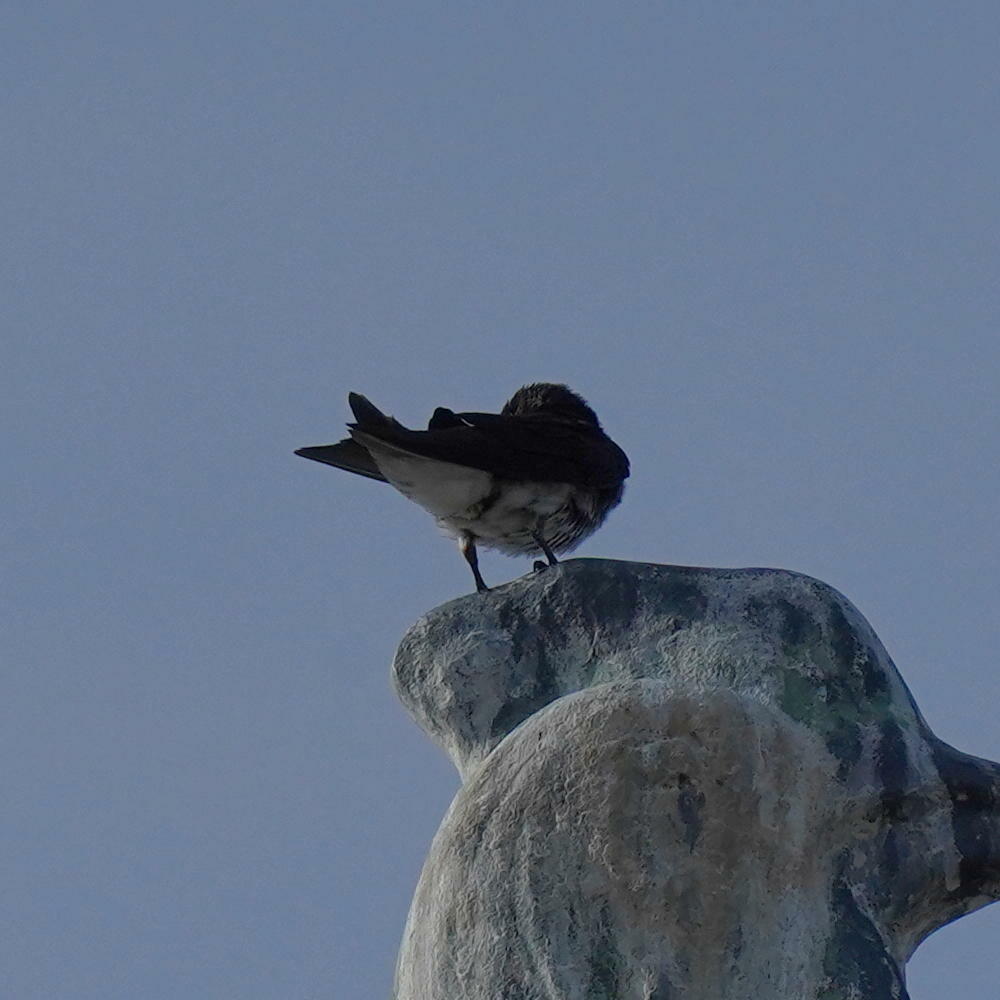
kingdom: Animalia
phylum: Chordata
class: Aves
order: Passeriformes
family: Hirundinidae
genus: Progne
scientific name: Progne chalybea
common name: Grey-breasted martin
